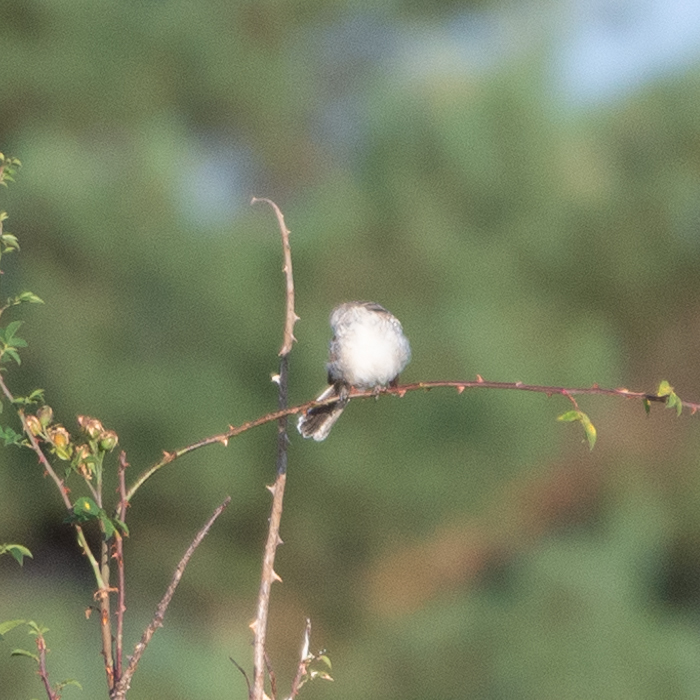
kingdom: Animalia
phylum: Chordata
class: Aves
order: Passeriformes
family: Laniidae
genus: Lanius
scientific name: Lanius senator
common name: Woodchat shrike
